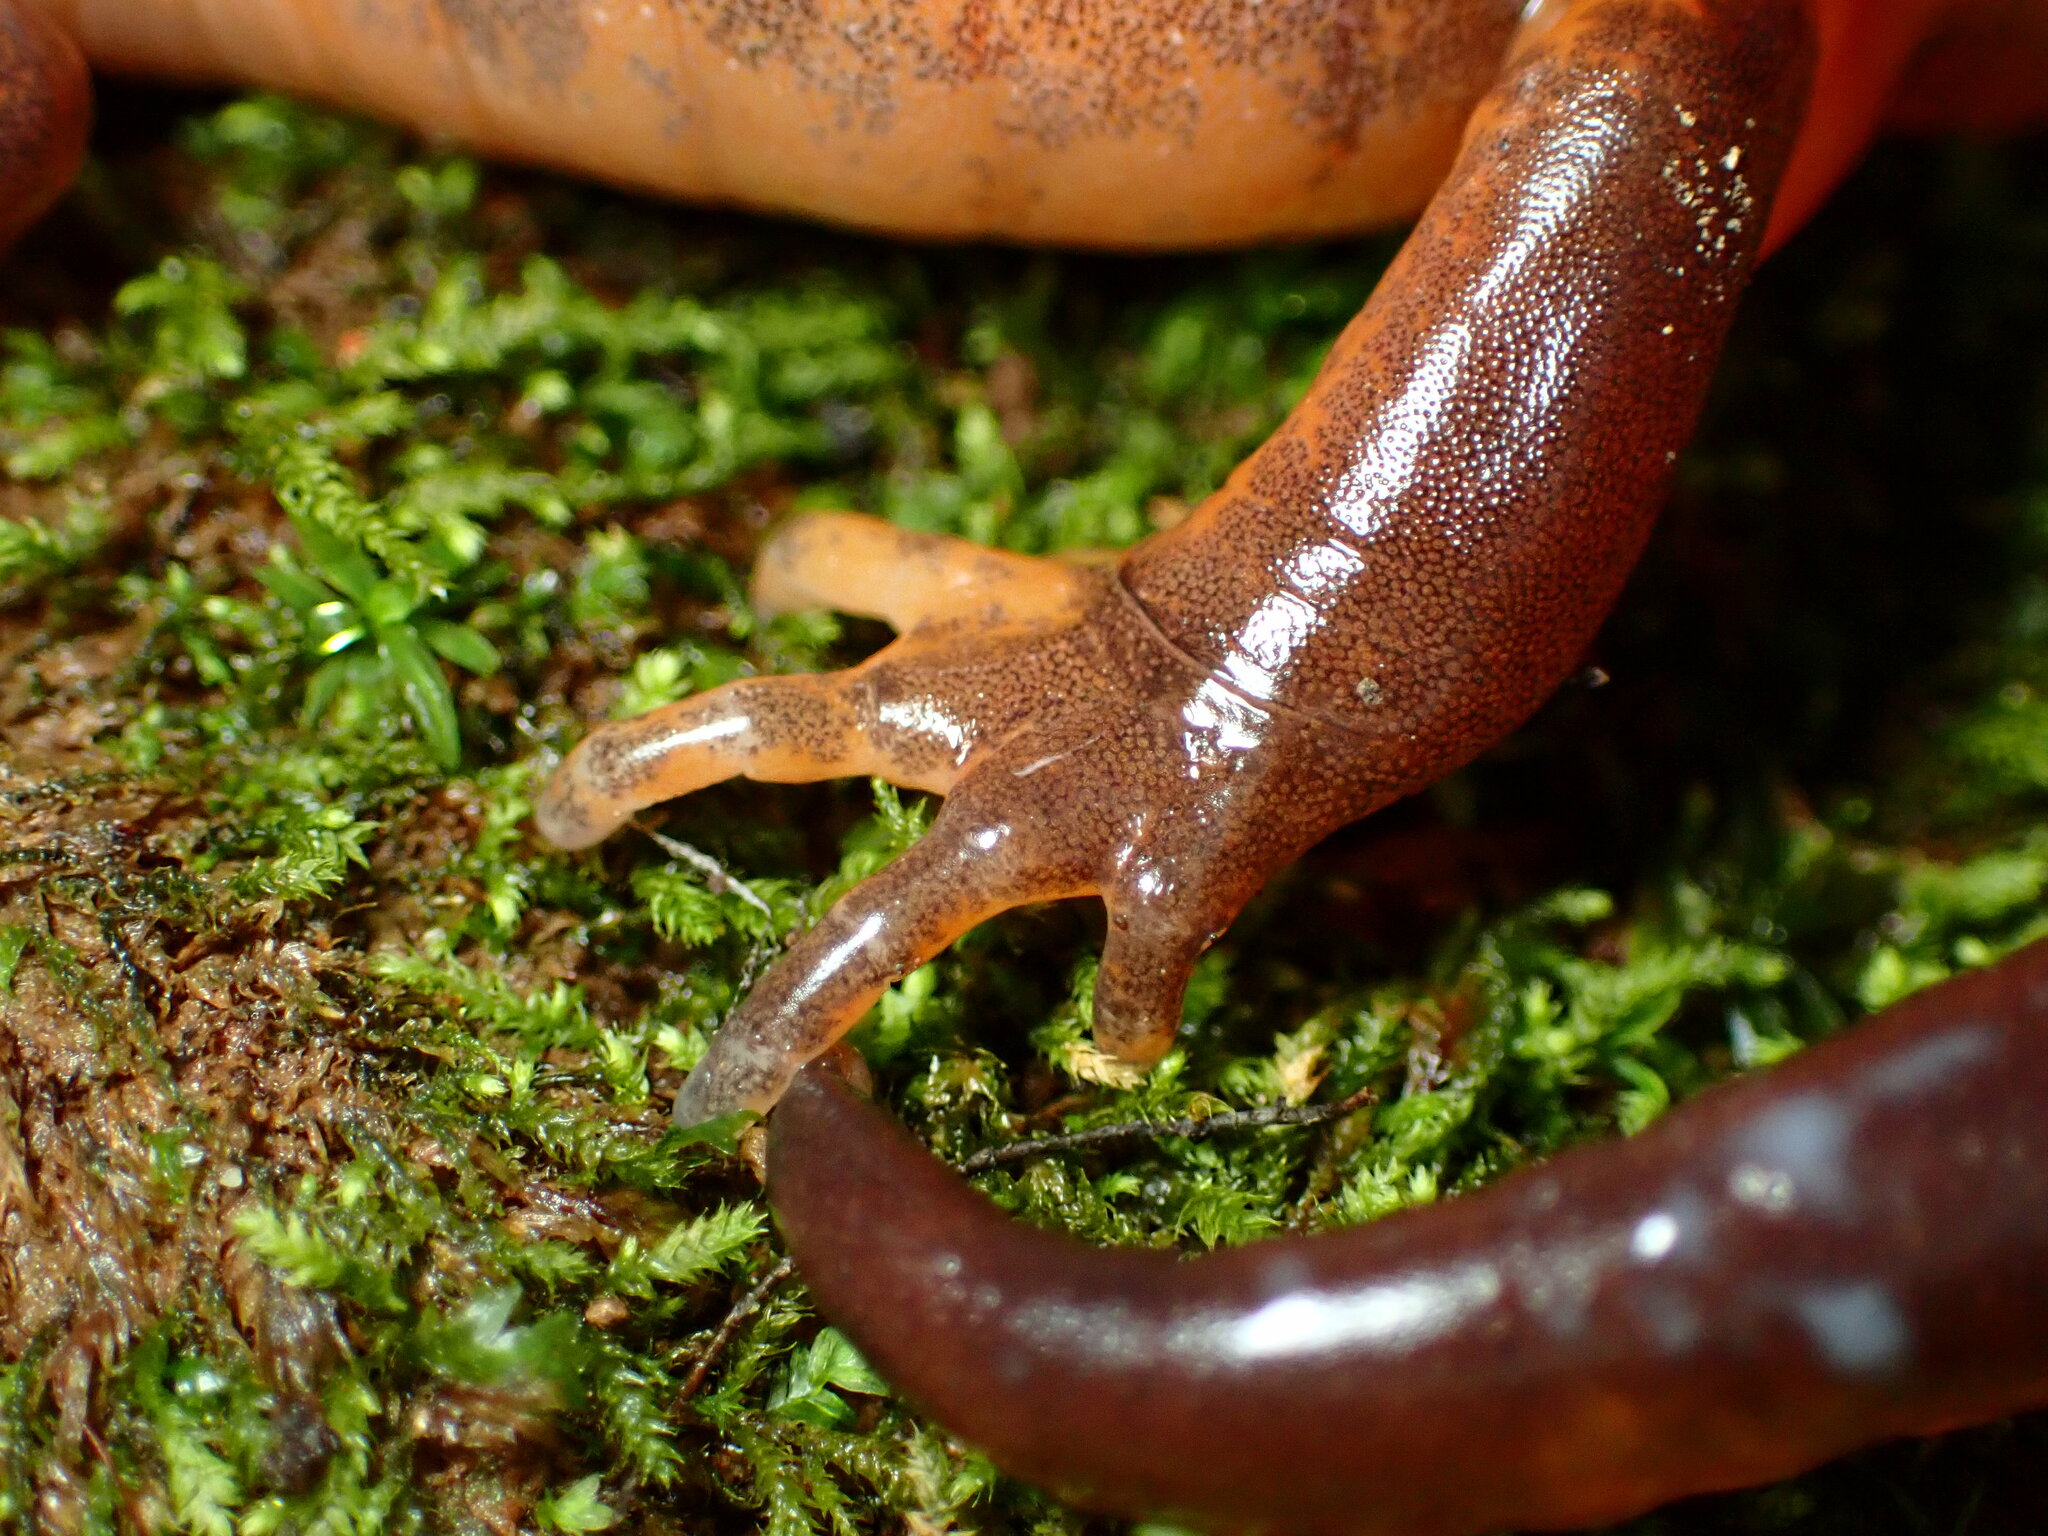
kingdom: Animalia
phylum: Chordata
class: Amphibia
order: Caudata
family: Plethodontidae
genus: Ensatina
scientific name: Ensatina eschscholtzii
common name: Ensatina
